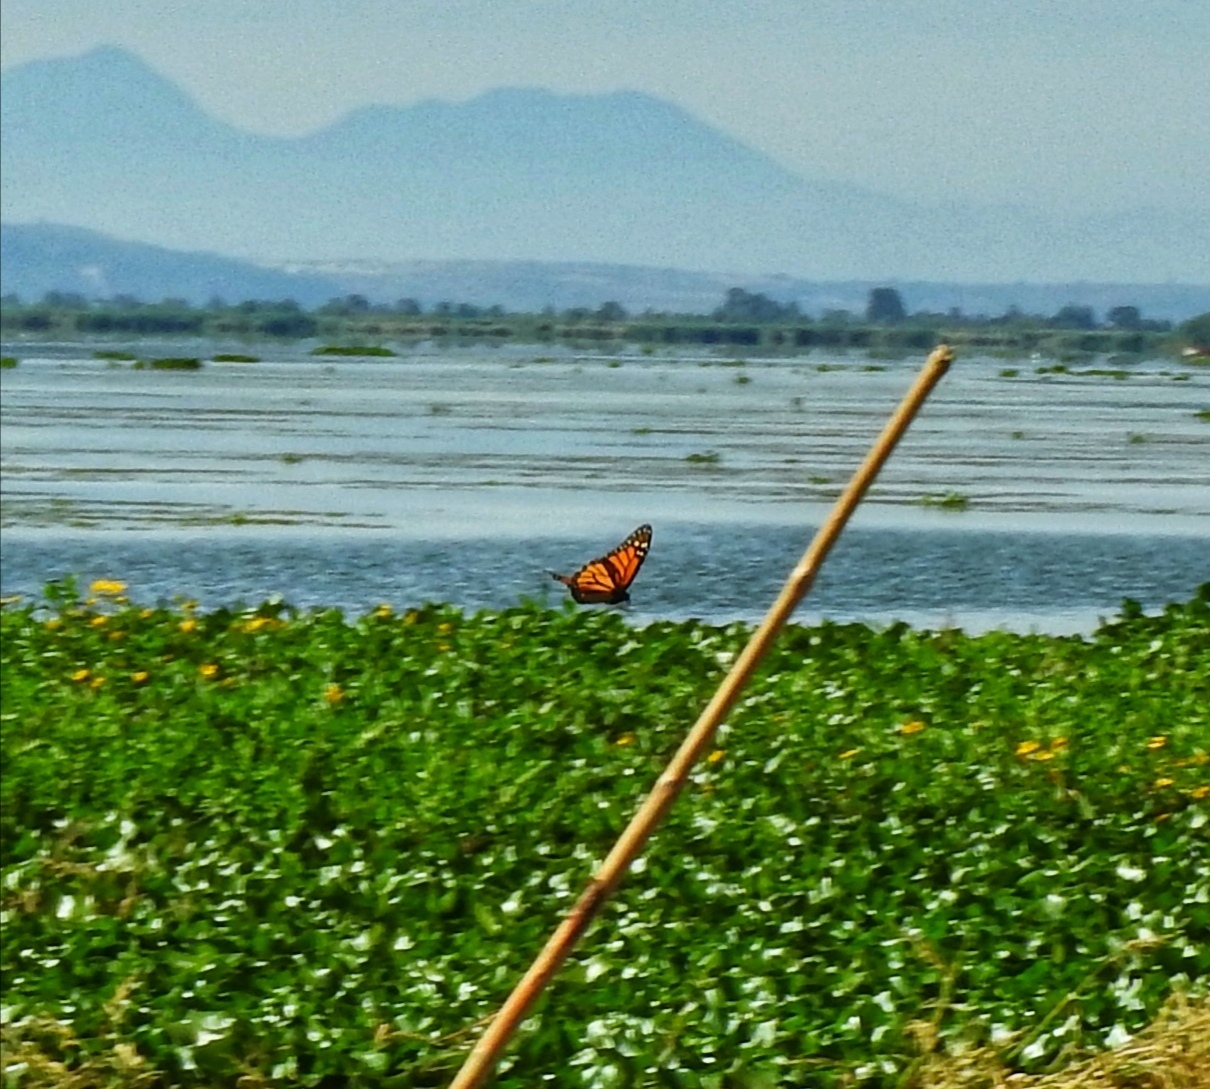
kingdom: Animalia
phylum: Arthropoda
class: Insecta
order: Lepidoptera
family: Nymphalidae
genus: Danaus
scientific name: Danaus plexippus
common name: Monarch
